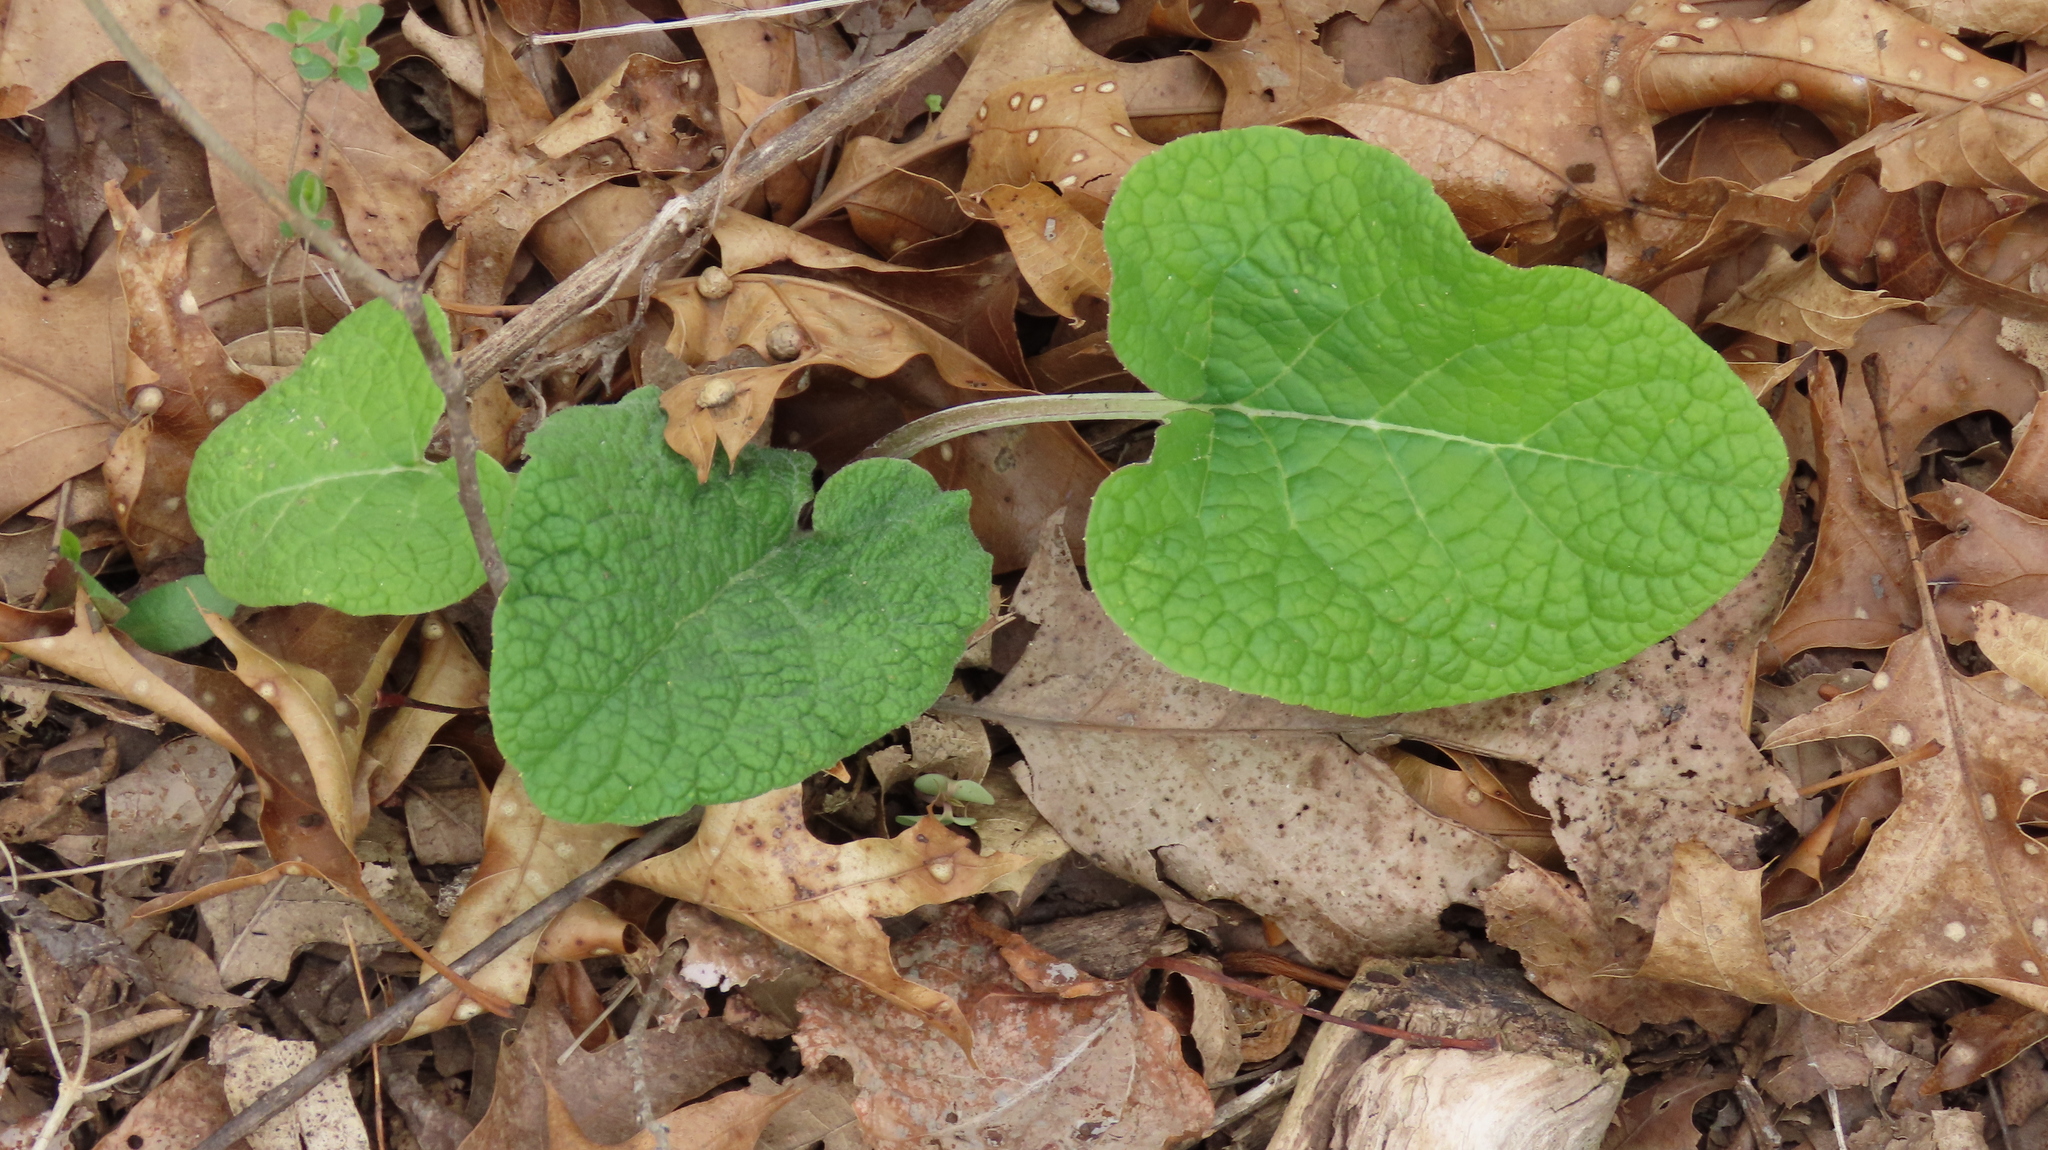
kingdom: Plantae
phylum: Tracheophyta
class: Magnoliopsida
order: Asterales
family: Asteraceae
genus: Arctium
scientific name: Arctium
